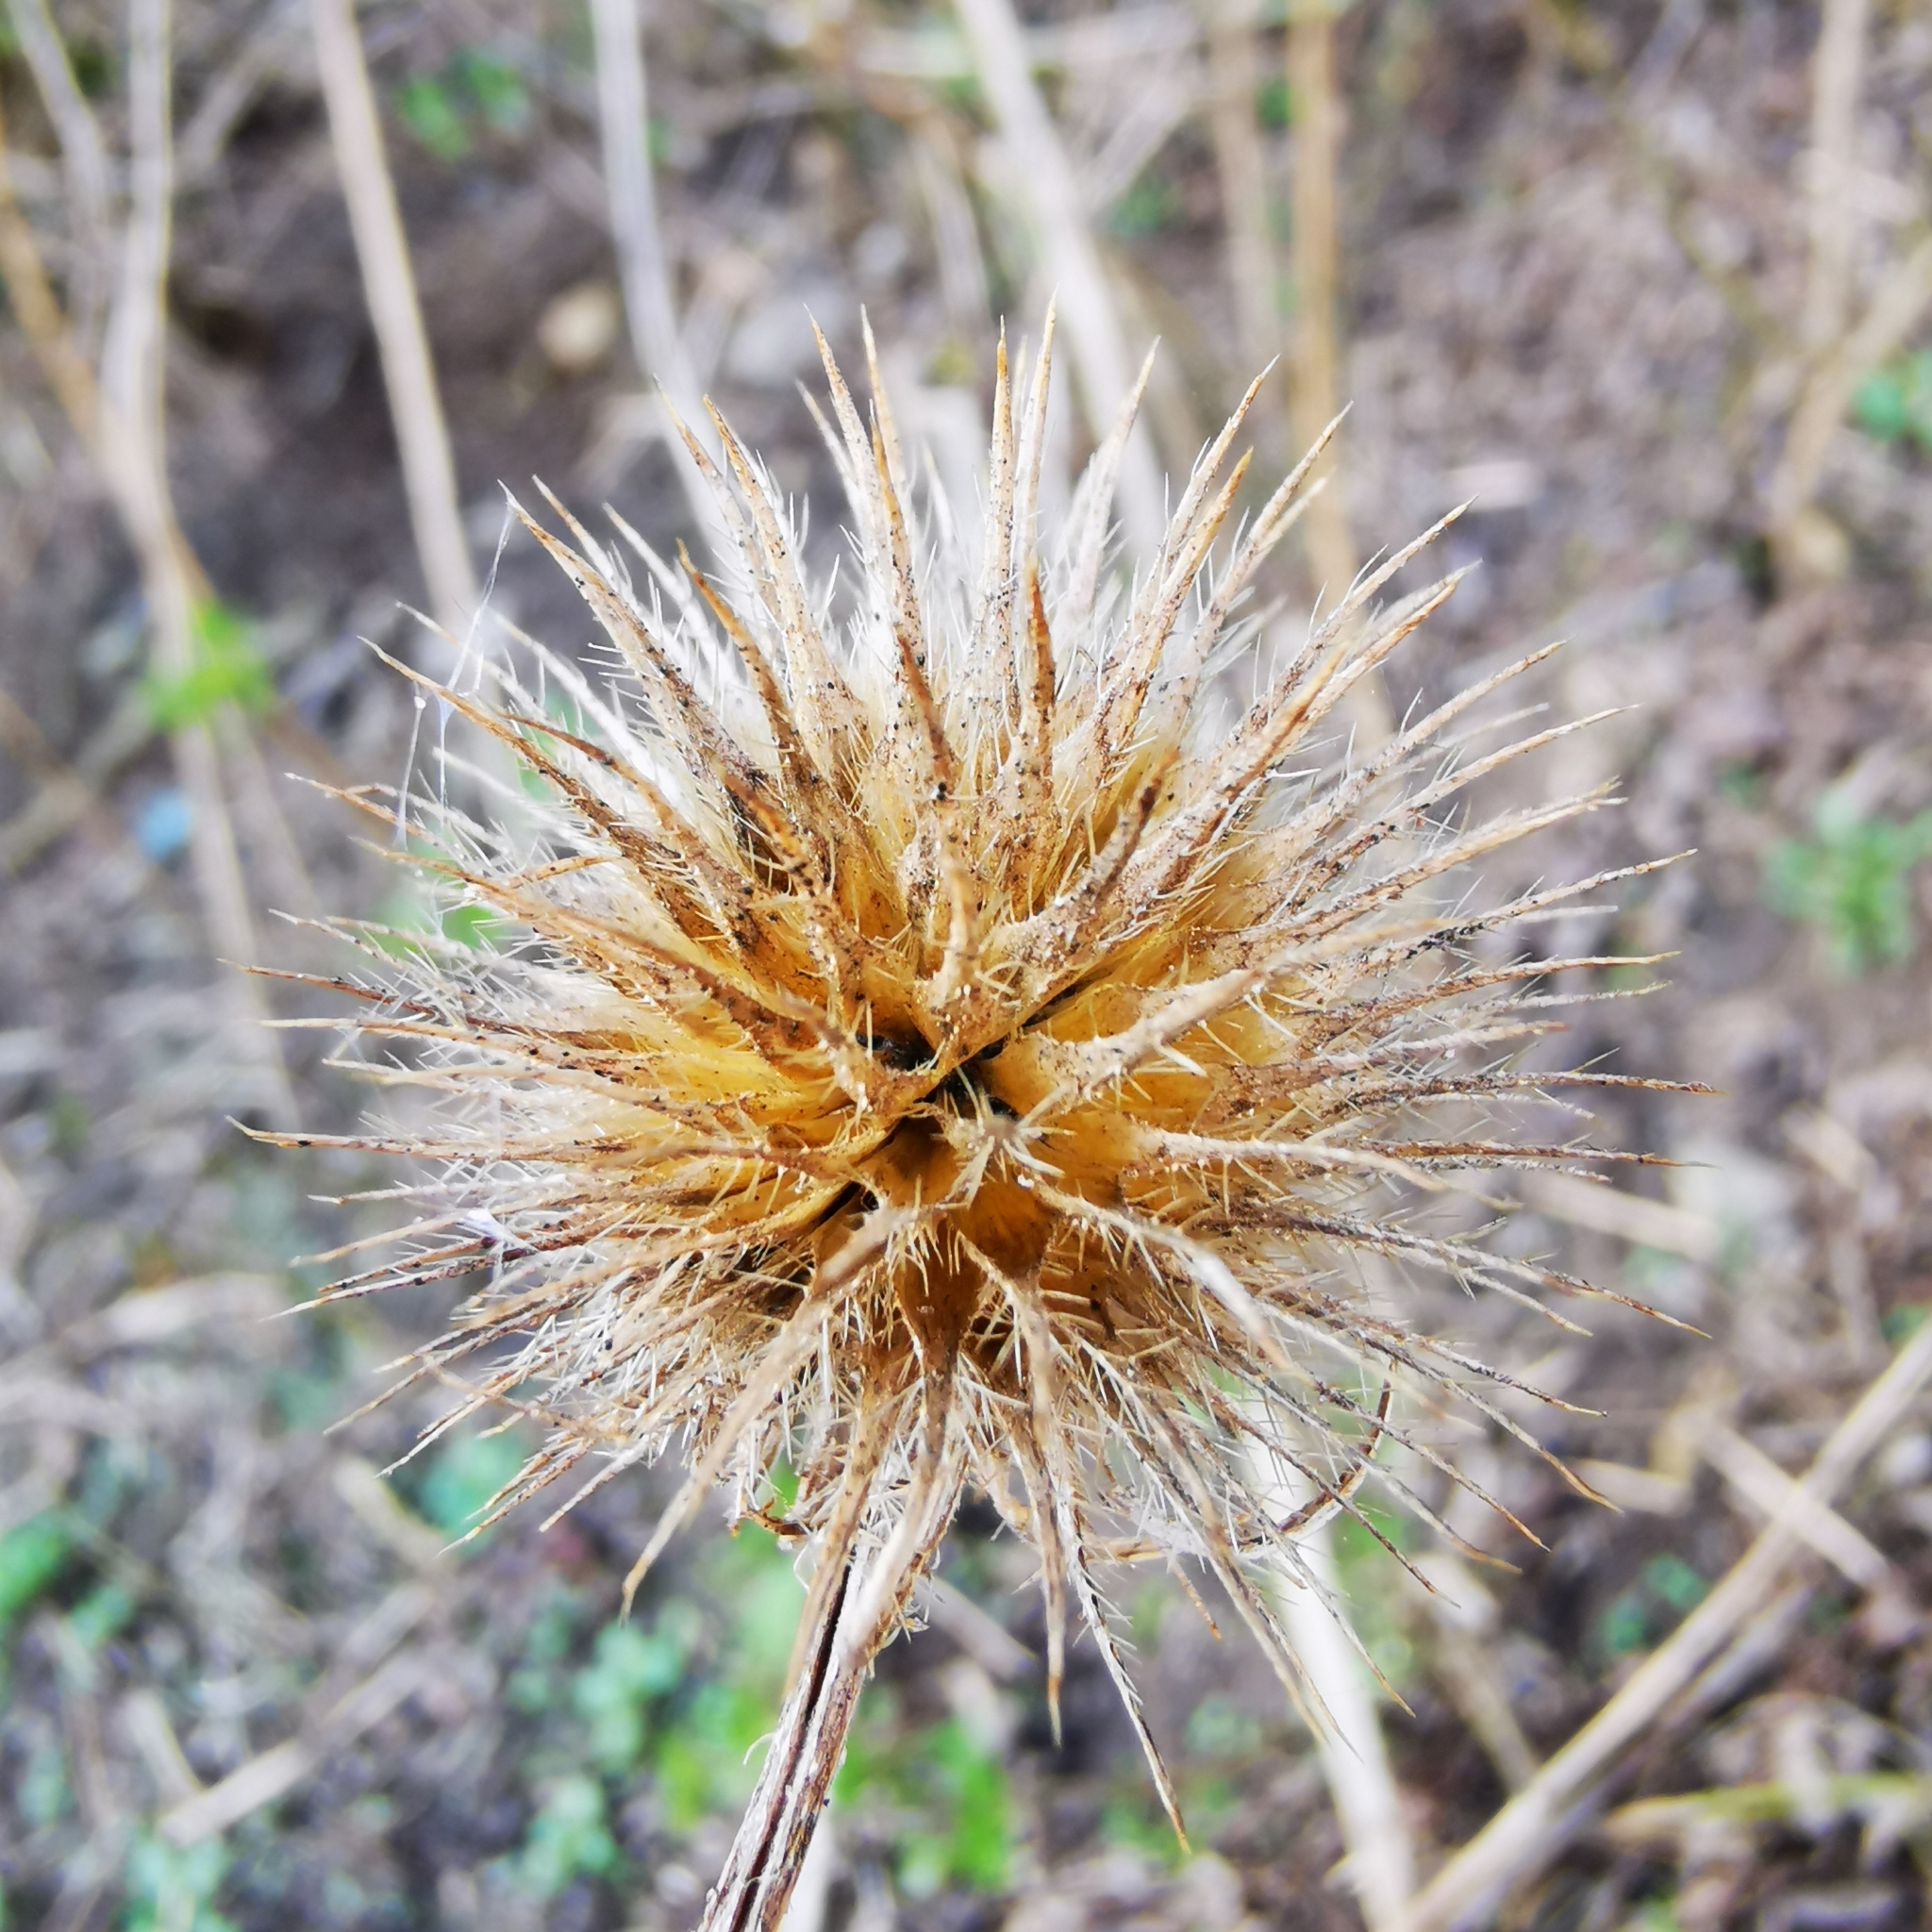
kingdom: Plantae
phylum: Tracheophyta
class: Magnoliopsida
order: Dipsacales
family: Caprifoliaceae
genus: Dipsacus
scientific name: Dipsacus strigosus
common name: Yellow-flowered teasel
